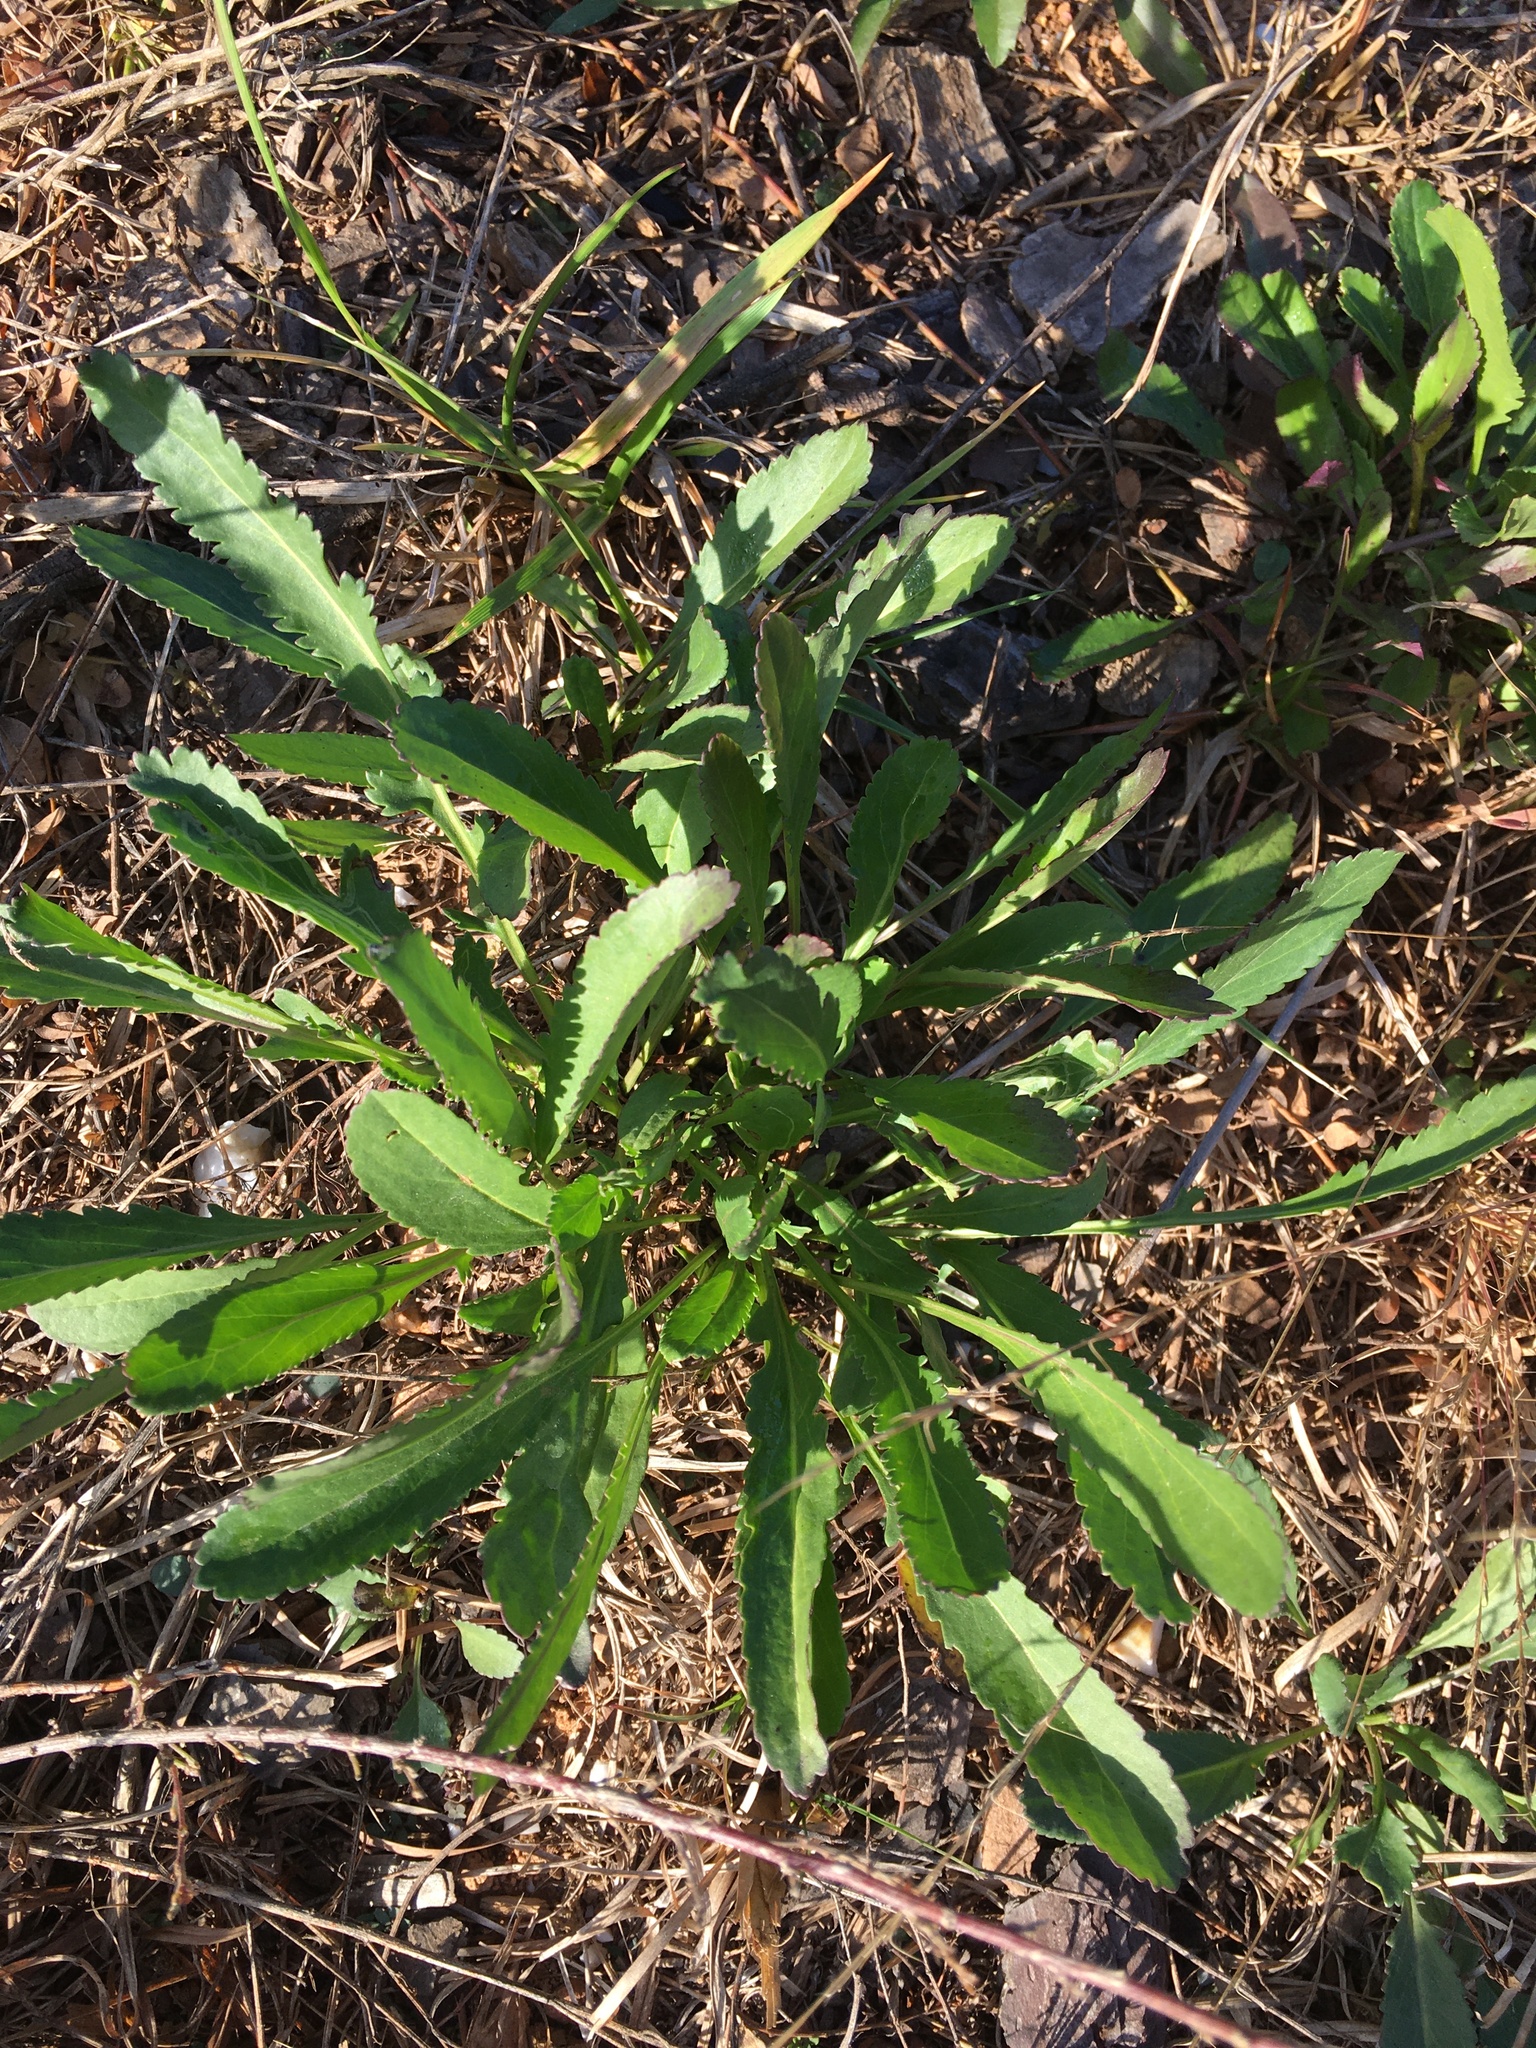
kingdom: Plantae
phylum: Tracheophyta
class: Magnoliopsida
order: Asterales
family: Asteraceae
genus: Packera
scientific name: Packera anonyma
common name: Small ragwort
